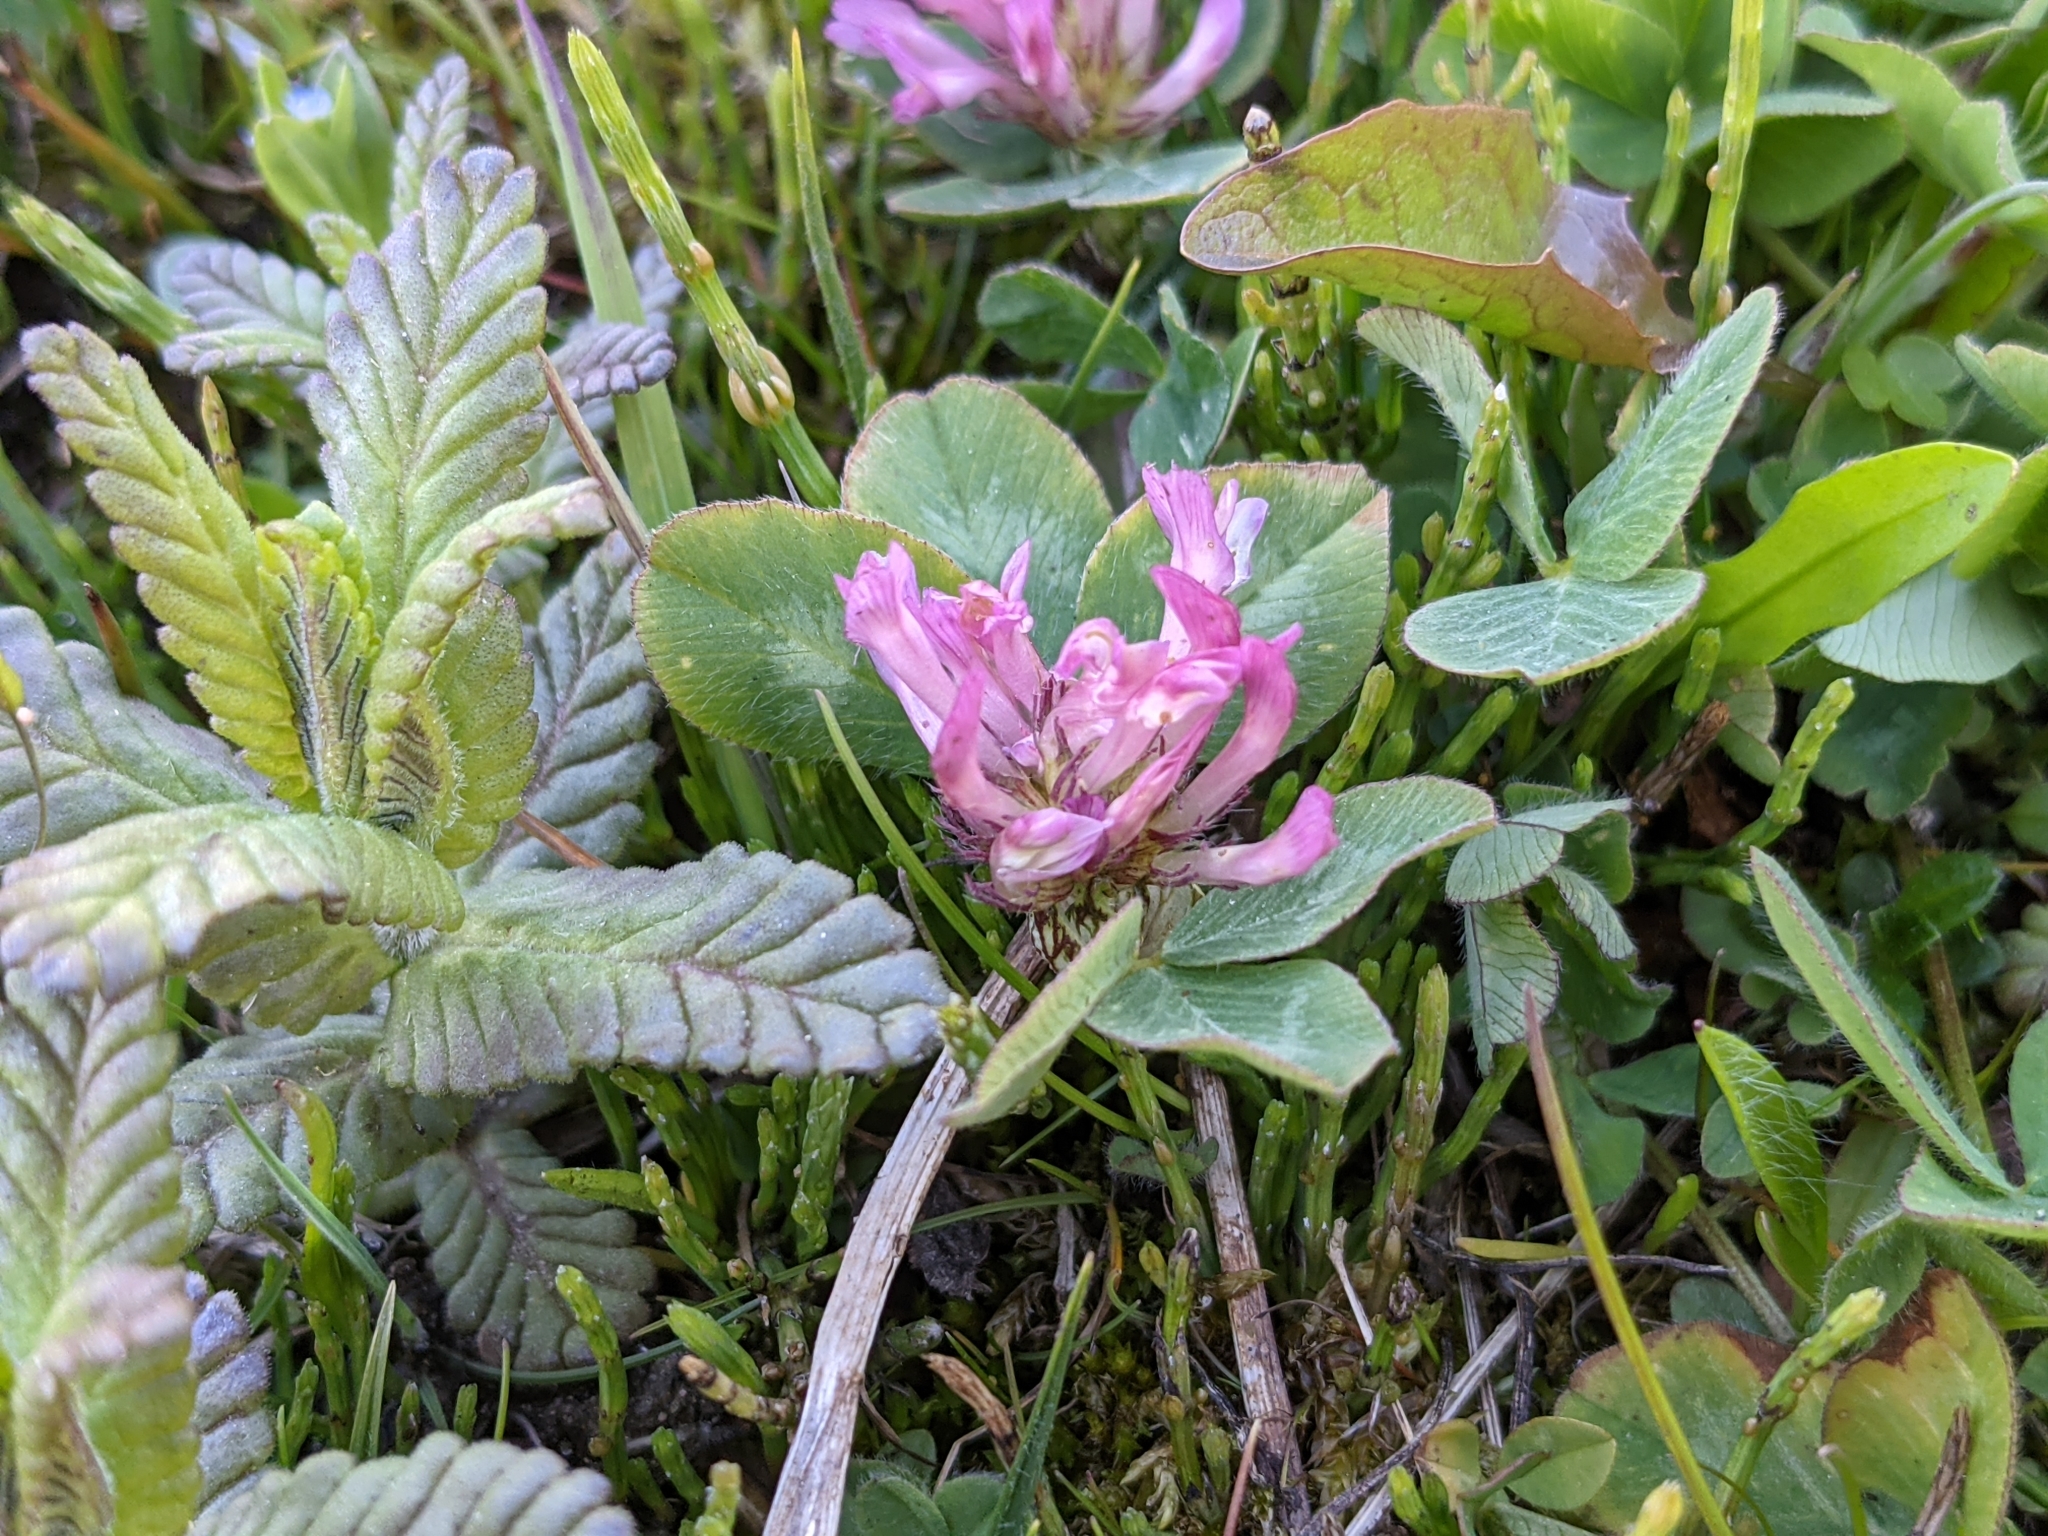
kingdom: Plantae
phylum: Tracheophyta
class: Magnoliopsida
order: Fabales
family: Fabaceae
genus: Trifolium
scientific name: Trifolium pratense
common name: Red clover
